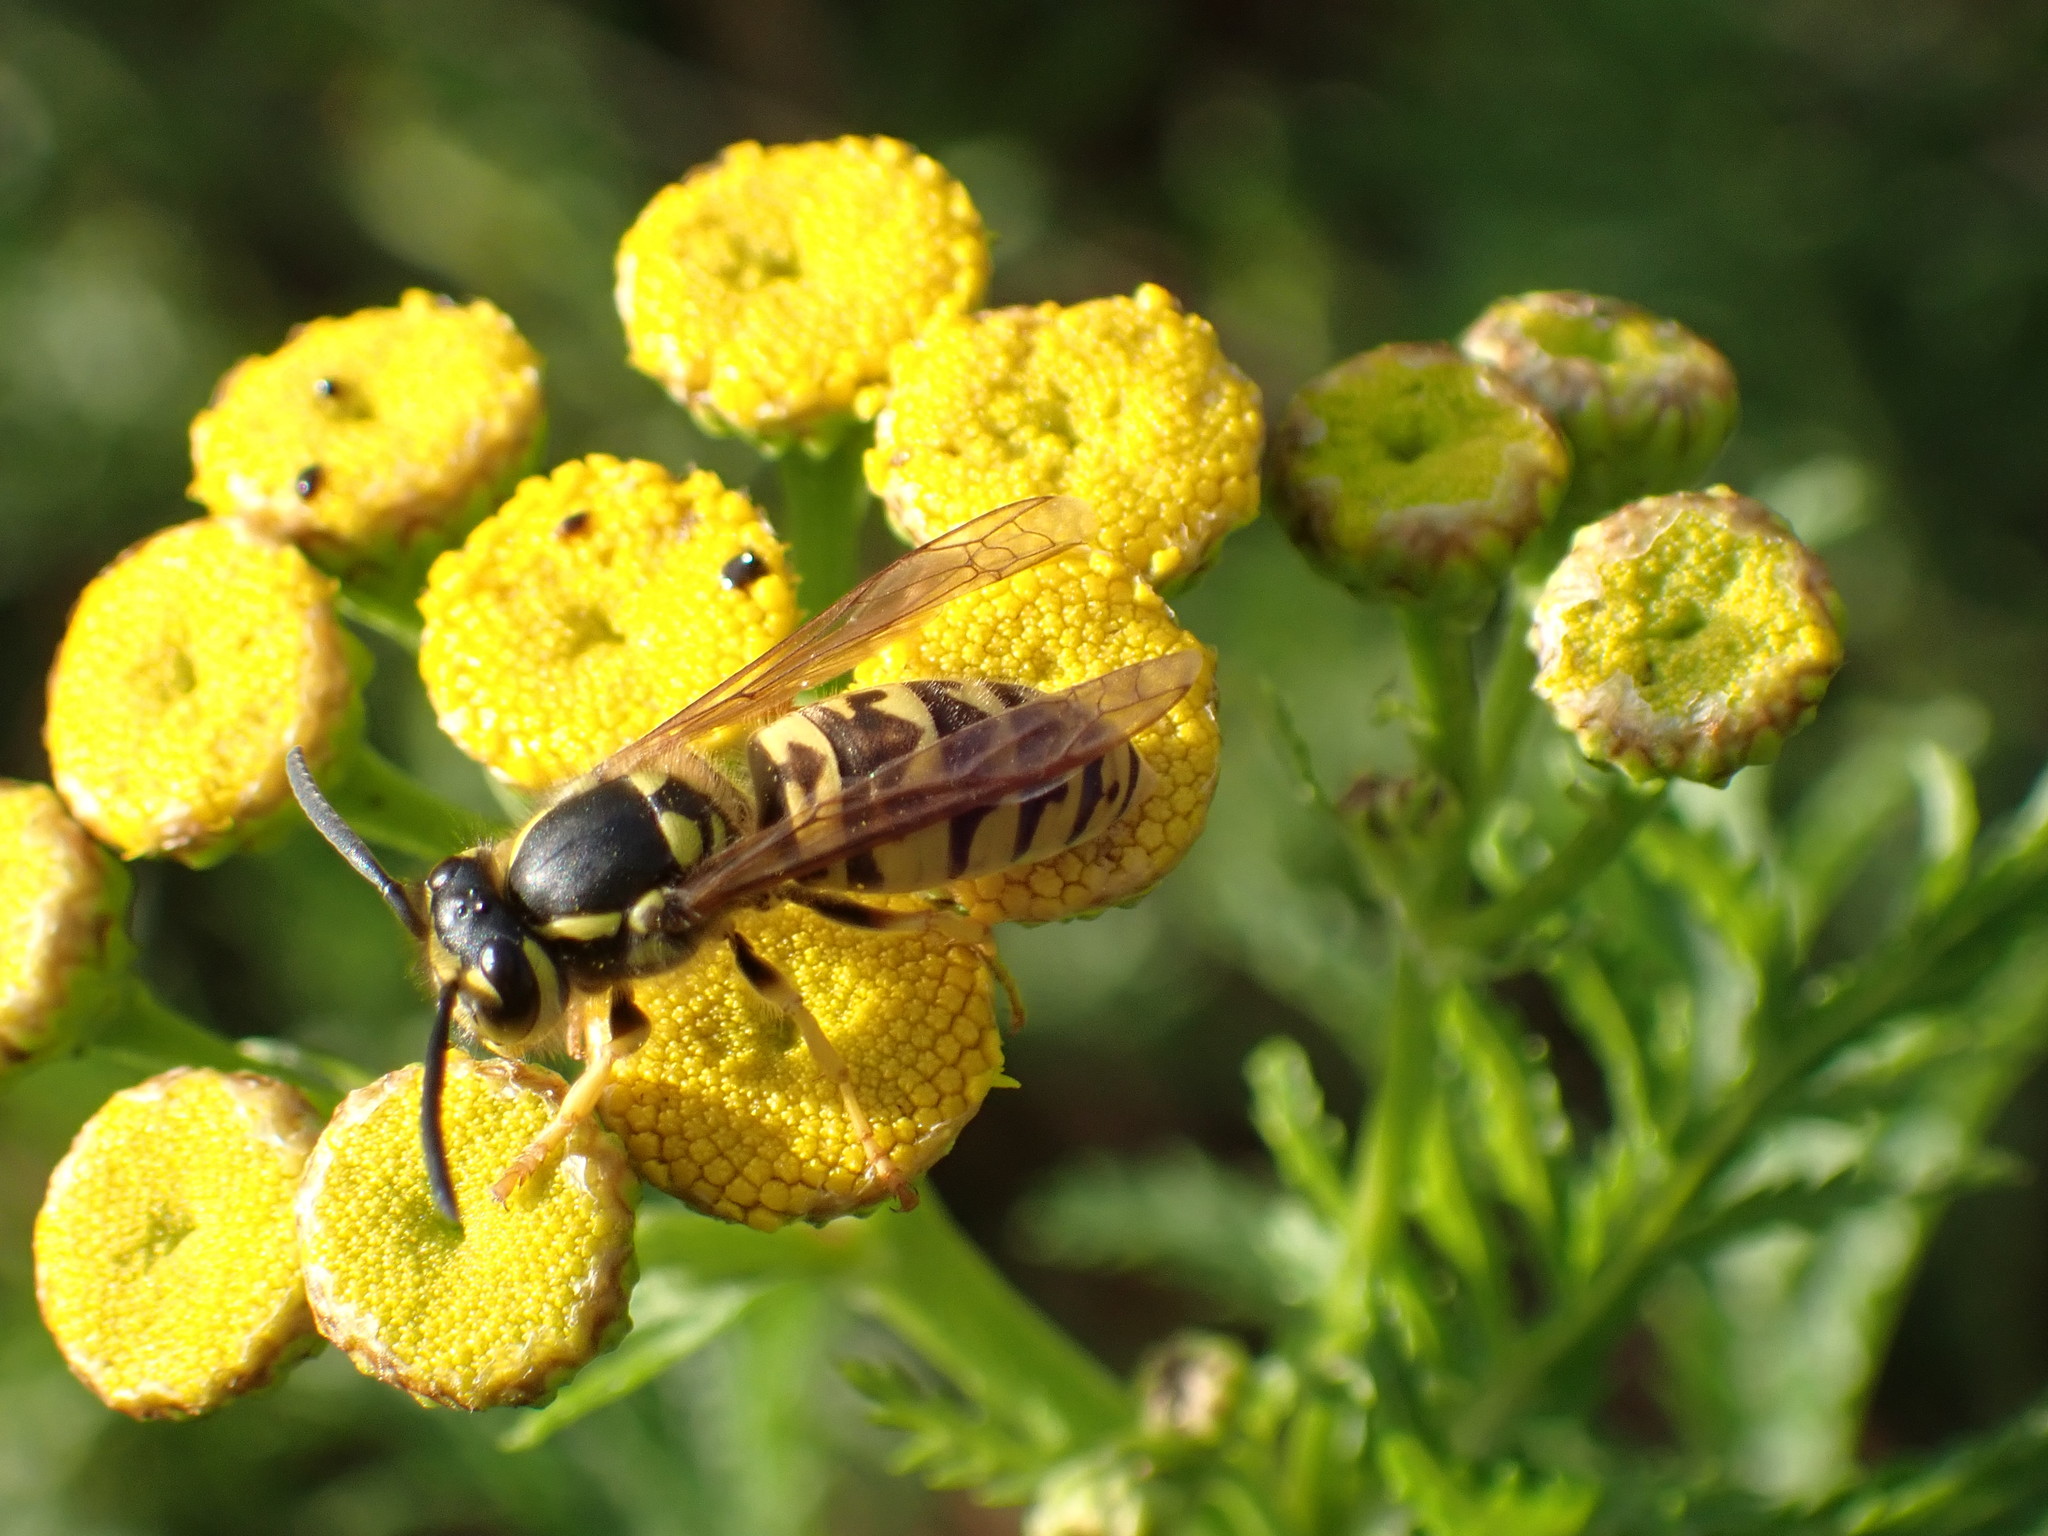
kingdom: Animalia
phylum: Arthropoda
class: Insecta
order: Hymenoptera
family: Vespidae
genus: Vespula
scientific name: Vespula germanica
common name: German wasp
